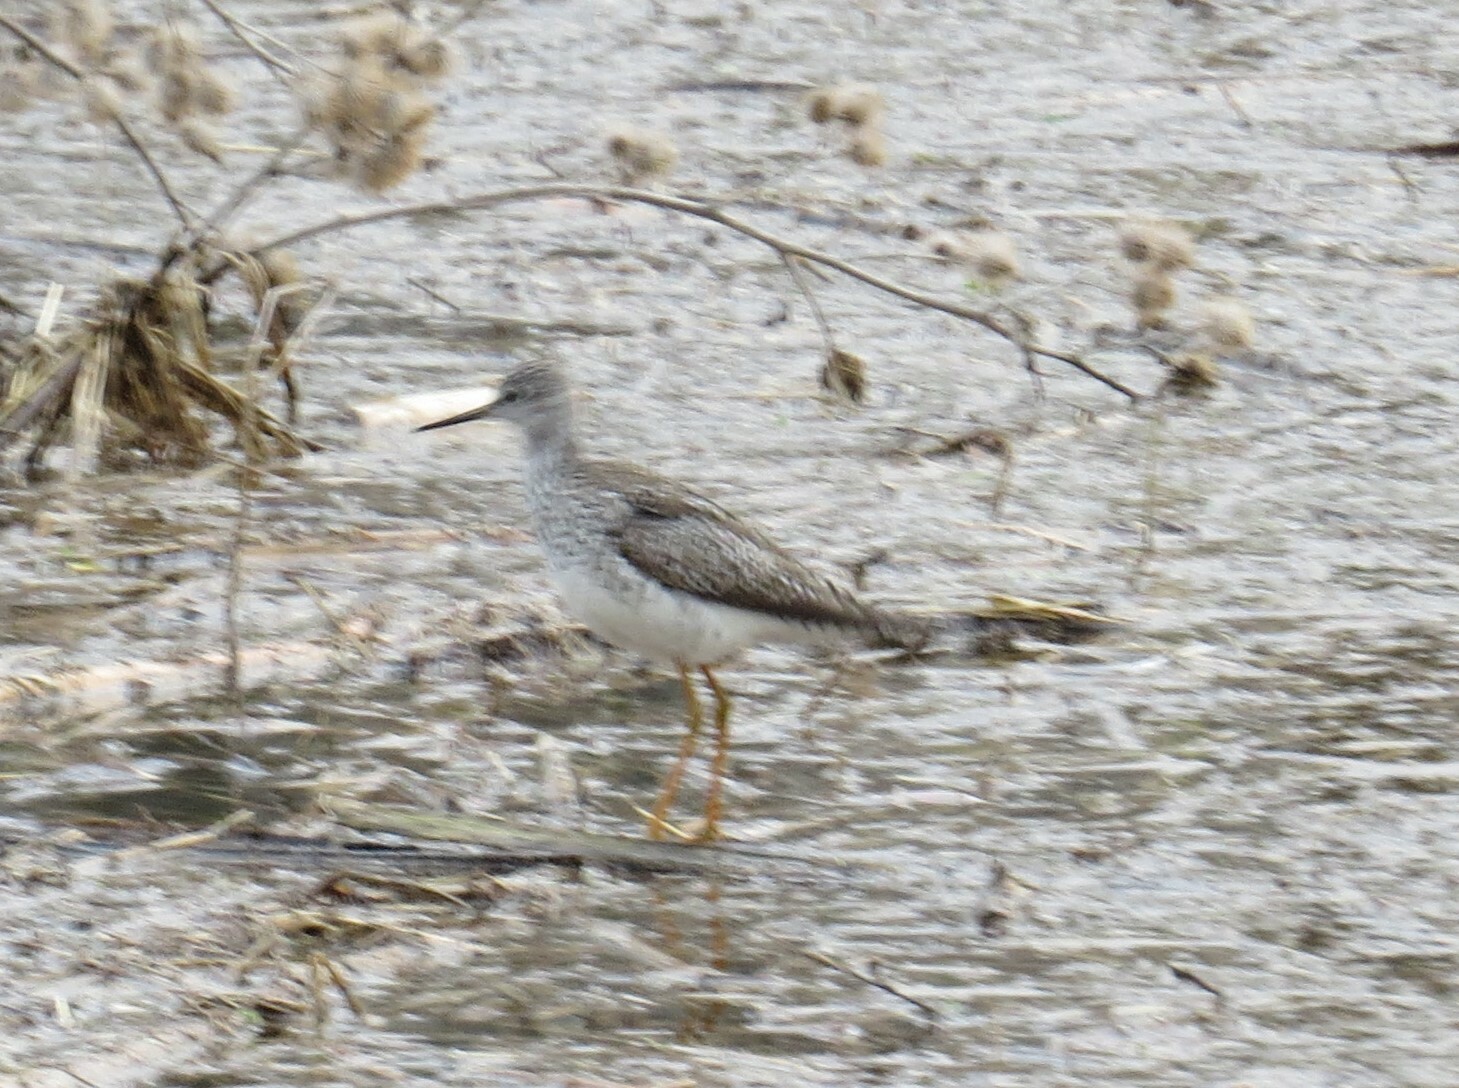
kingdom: Animalia
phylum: Chordata
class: Aves
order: Charadriiformes
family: Scolopacidae
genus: Tringa
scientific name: Tringa flavipes
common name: Lesser yellowlegs
